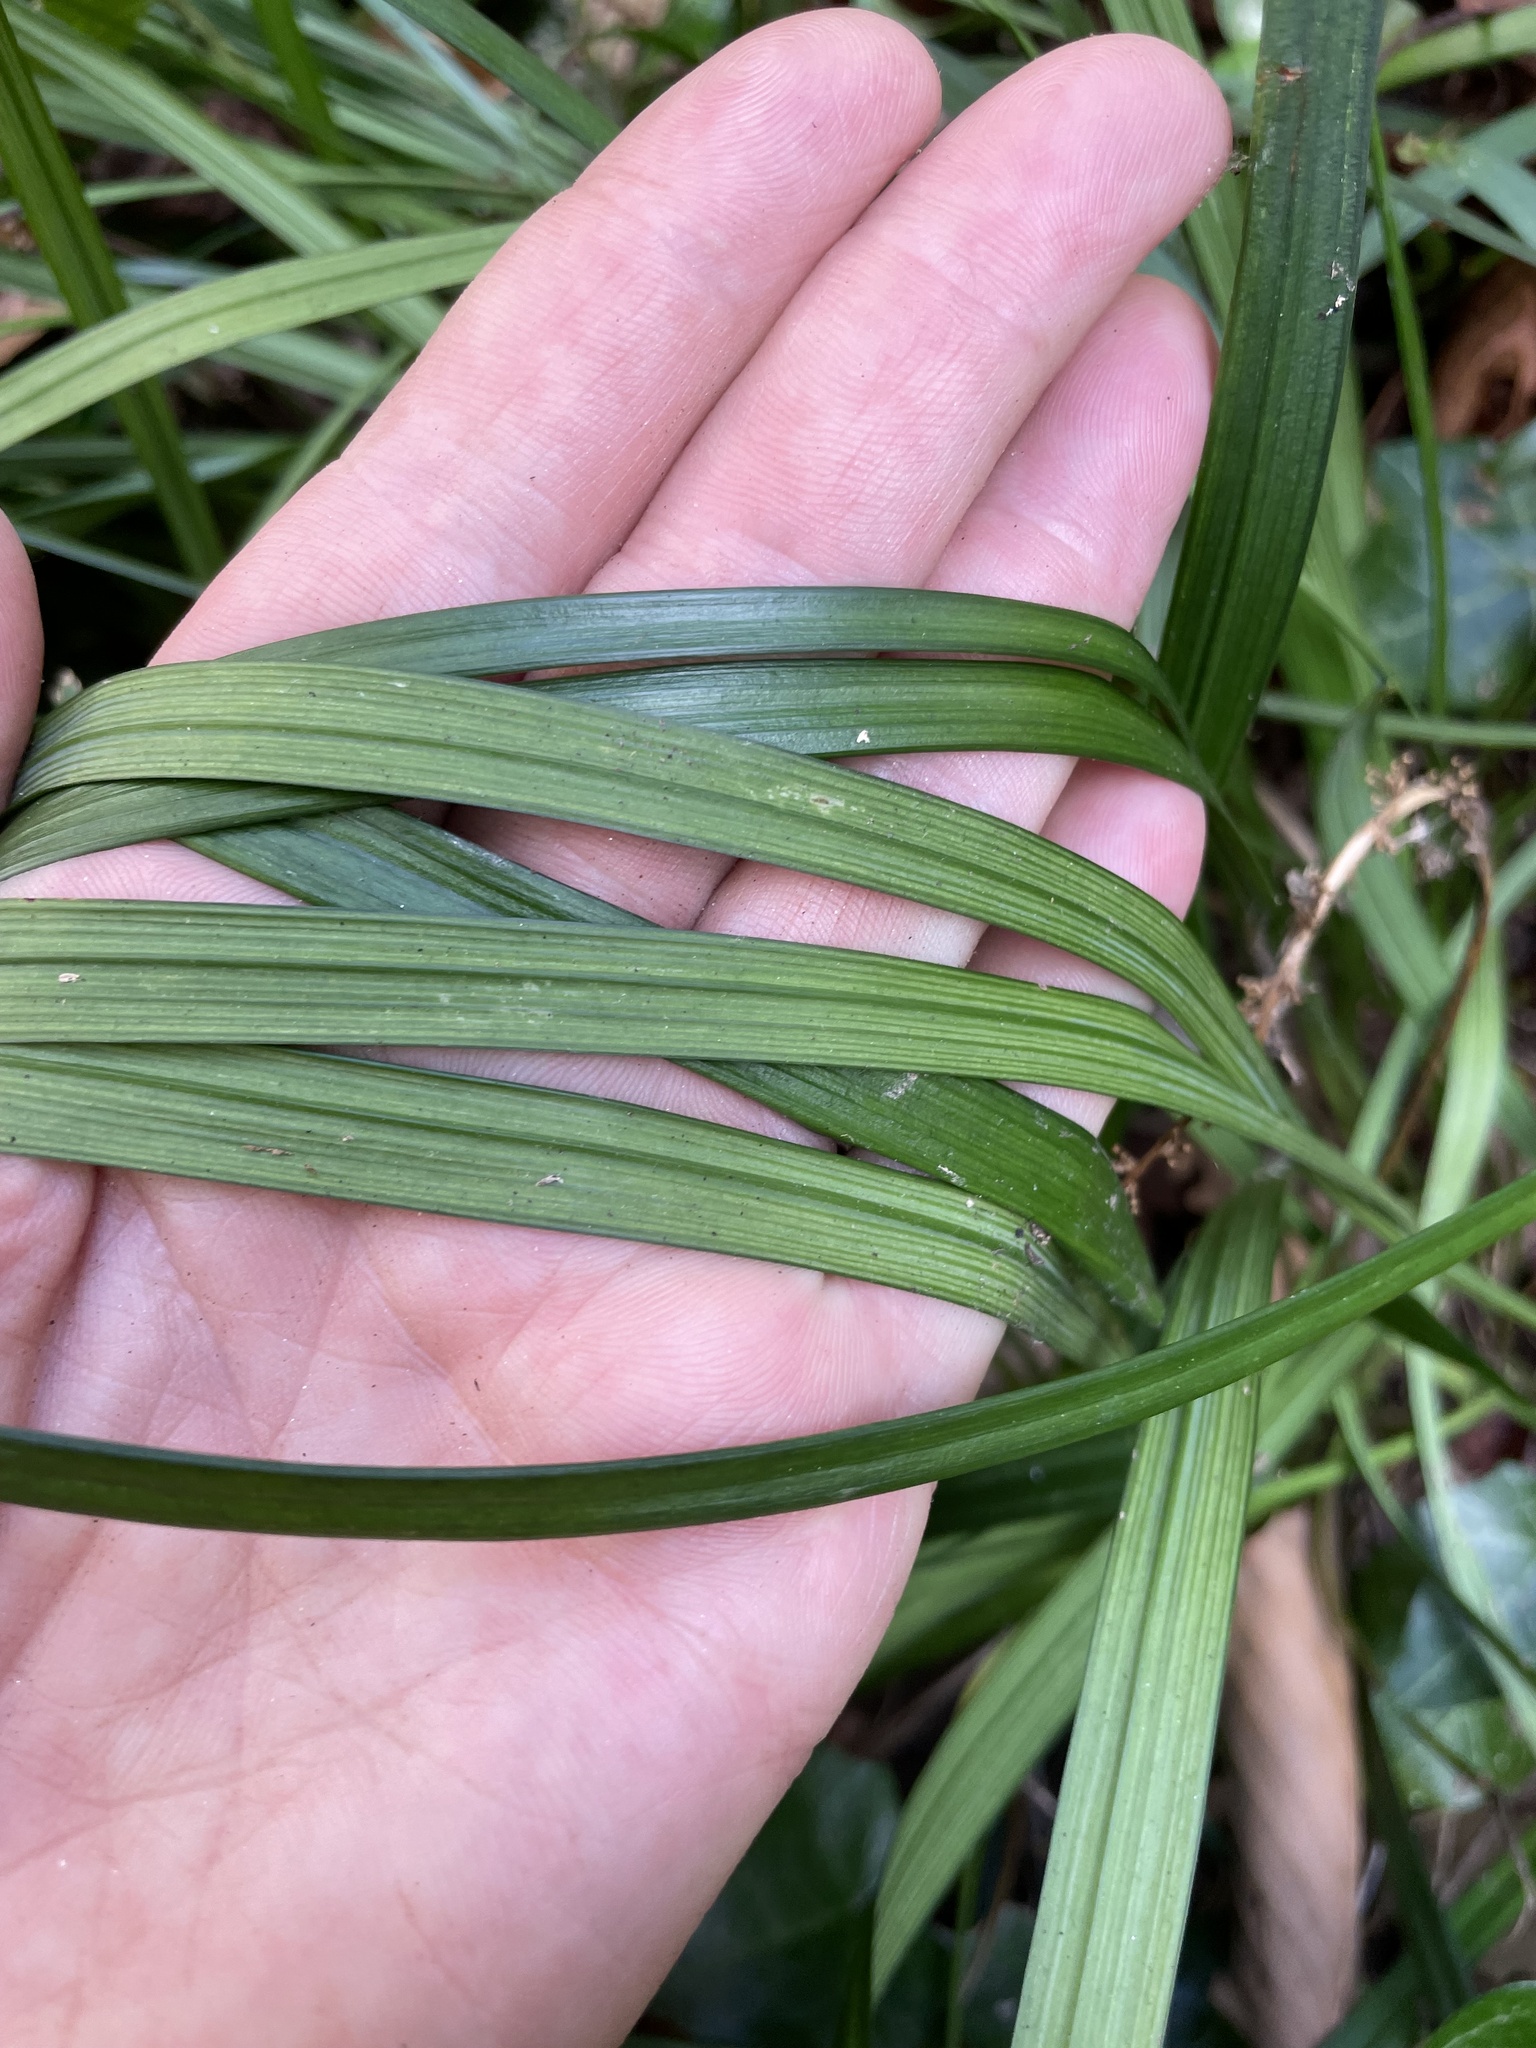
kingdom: Plantae
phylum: Tracheophyta
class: Liliopsida
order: Asparagales
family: Asparagaceae
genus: Liriope
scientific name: Liriope muscari
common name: Big blue lilyturf
